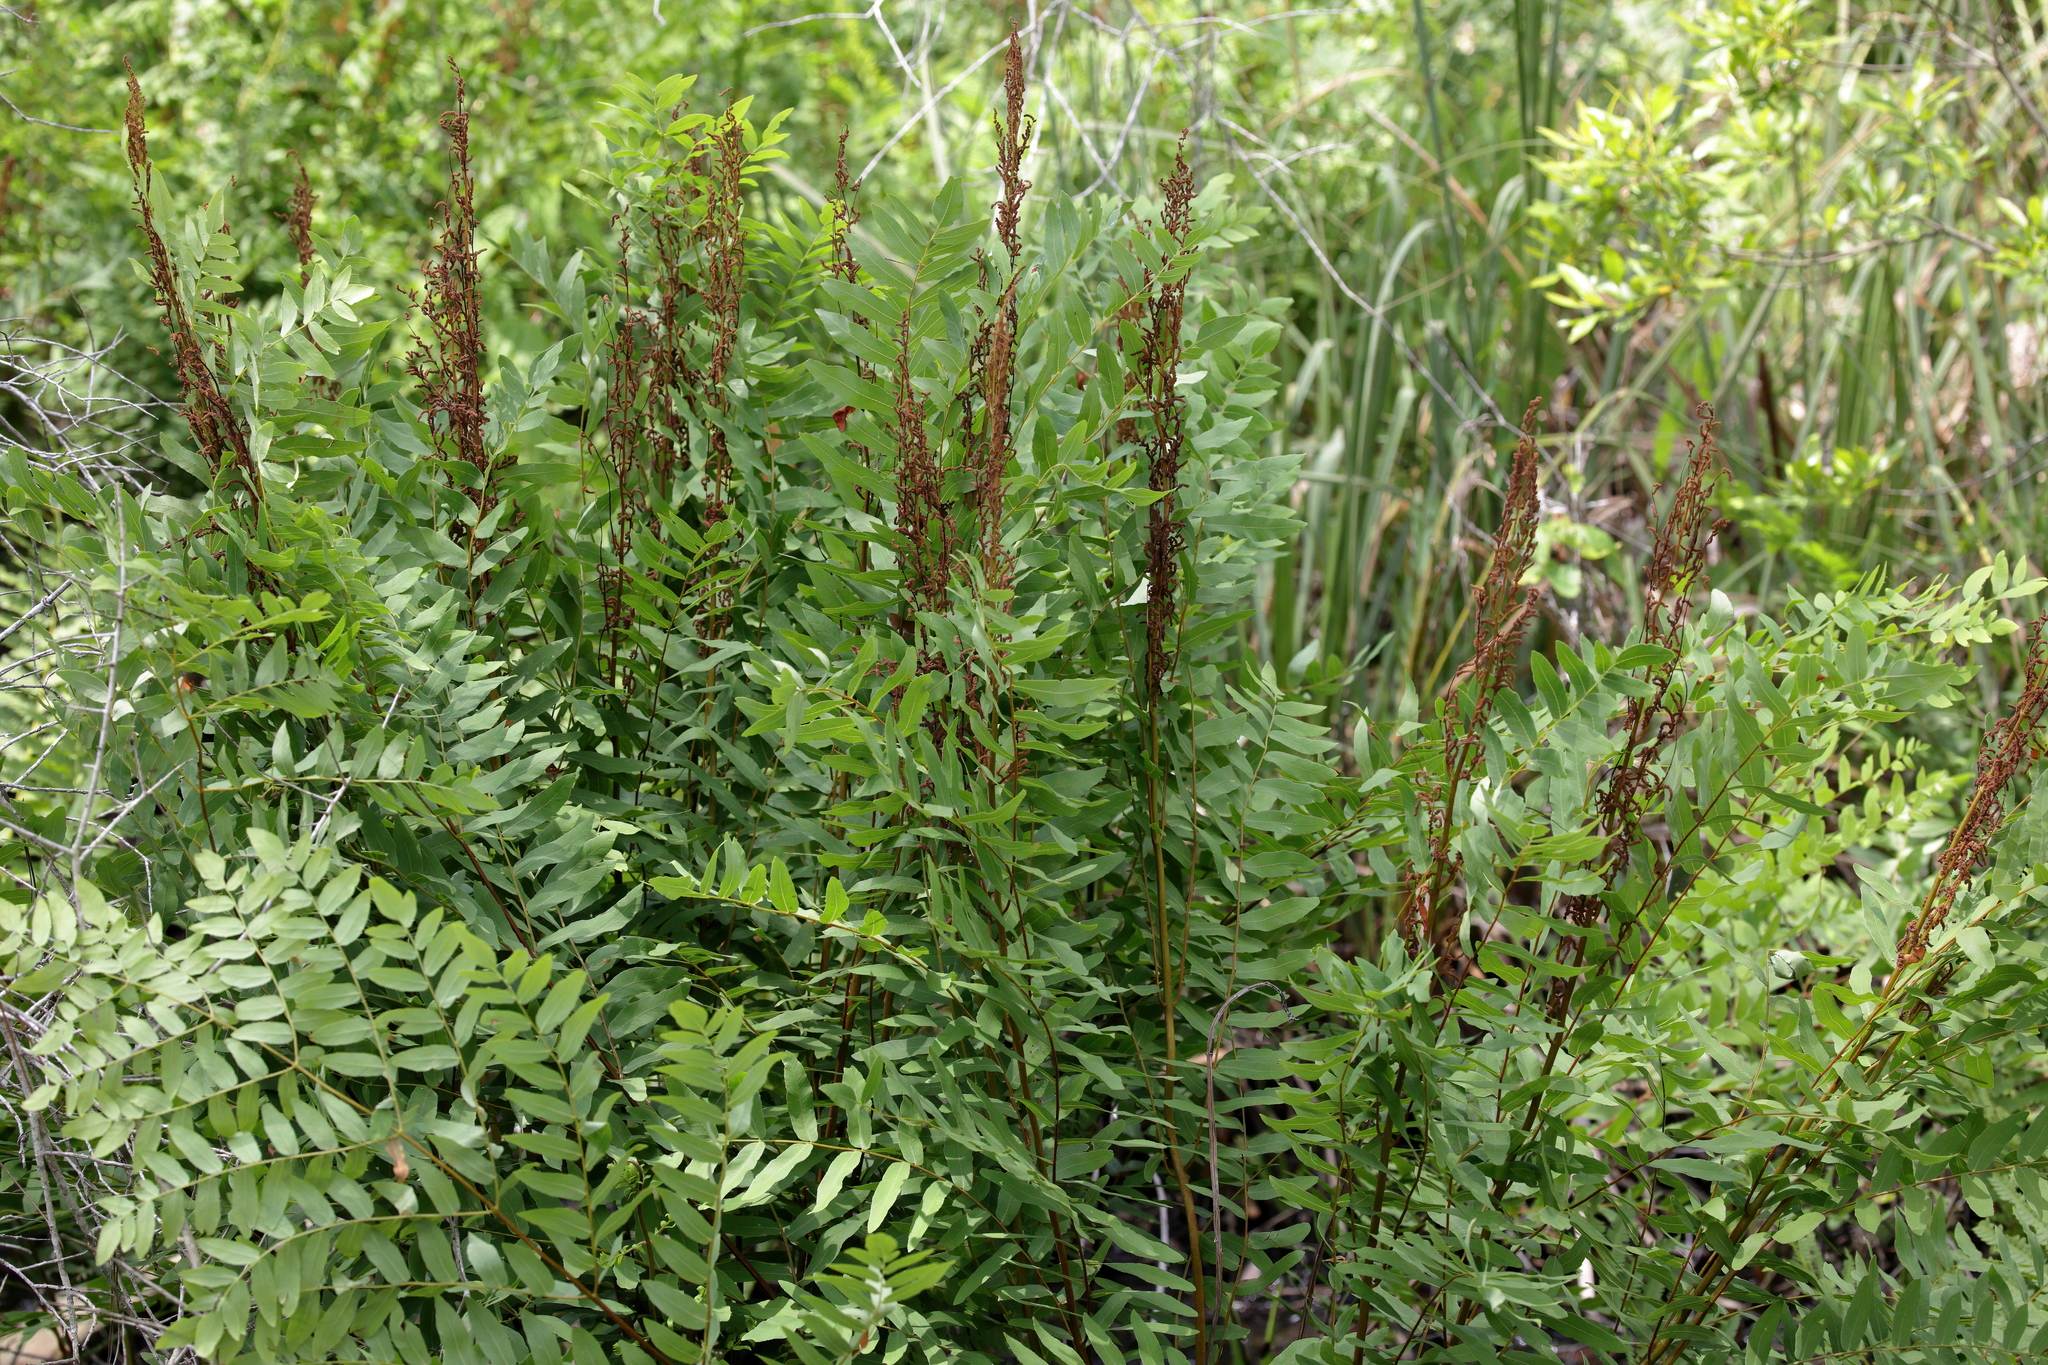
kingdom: Plantae
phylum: Tracheophyta
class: Polypodiopsida
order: Osmundales
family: Osmundaceae
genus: Osmunda
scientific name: Osmunda spectabilis
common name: American royal fern
